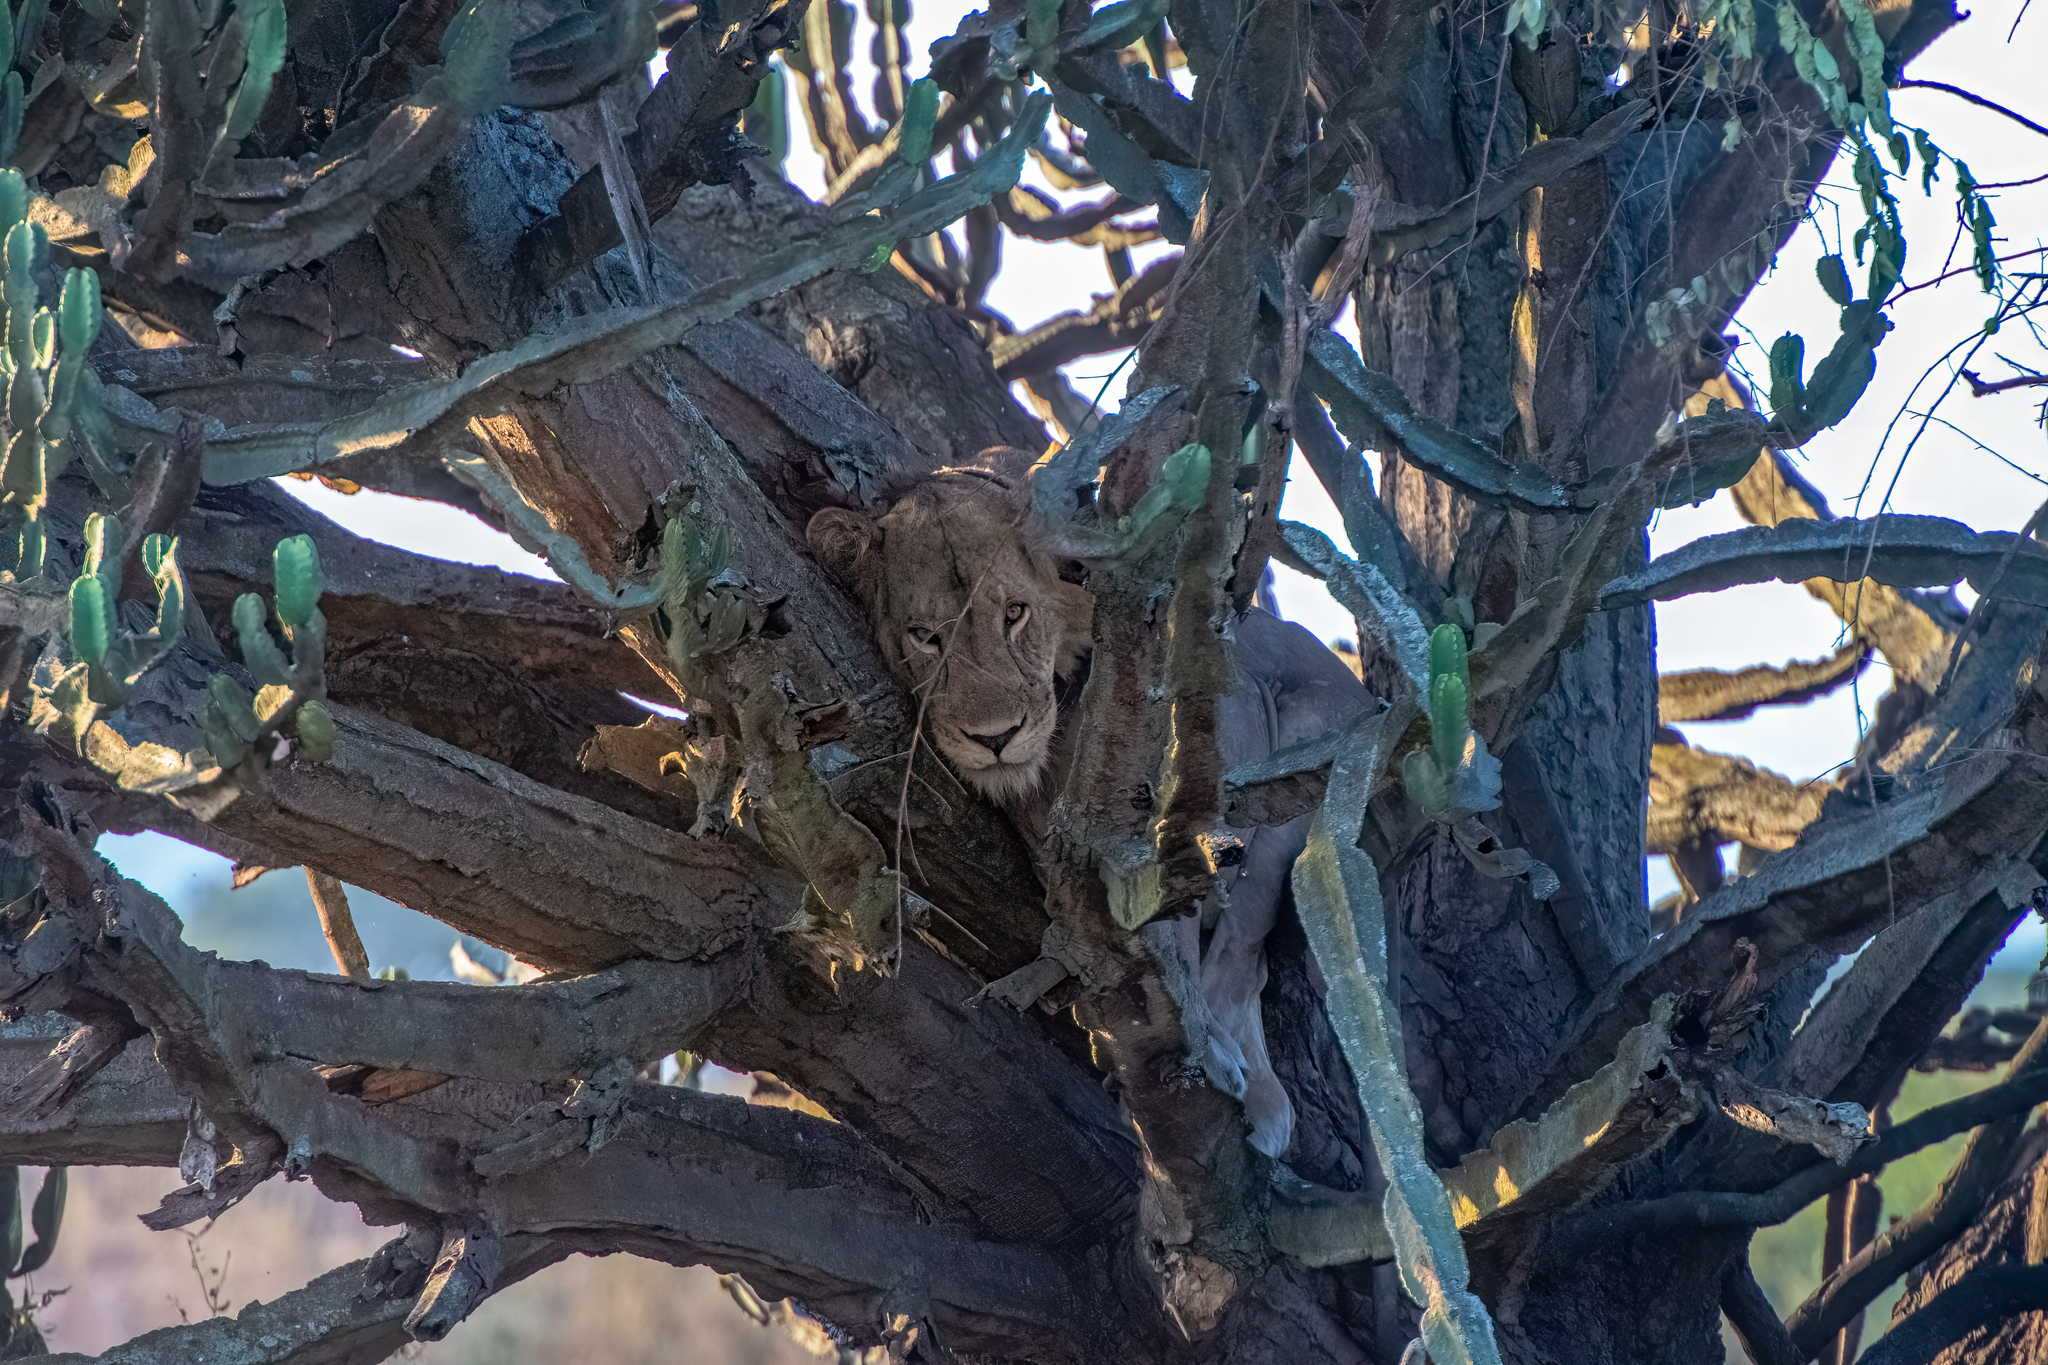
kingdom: Animalia
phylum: Chordata
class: Mammalia
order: Carnivora
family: Felidae
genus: Panthera
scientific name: Panthera leo
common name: Lion
